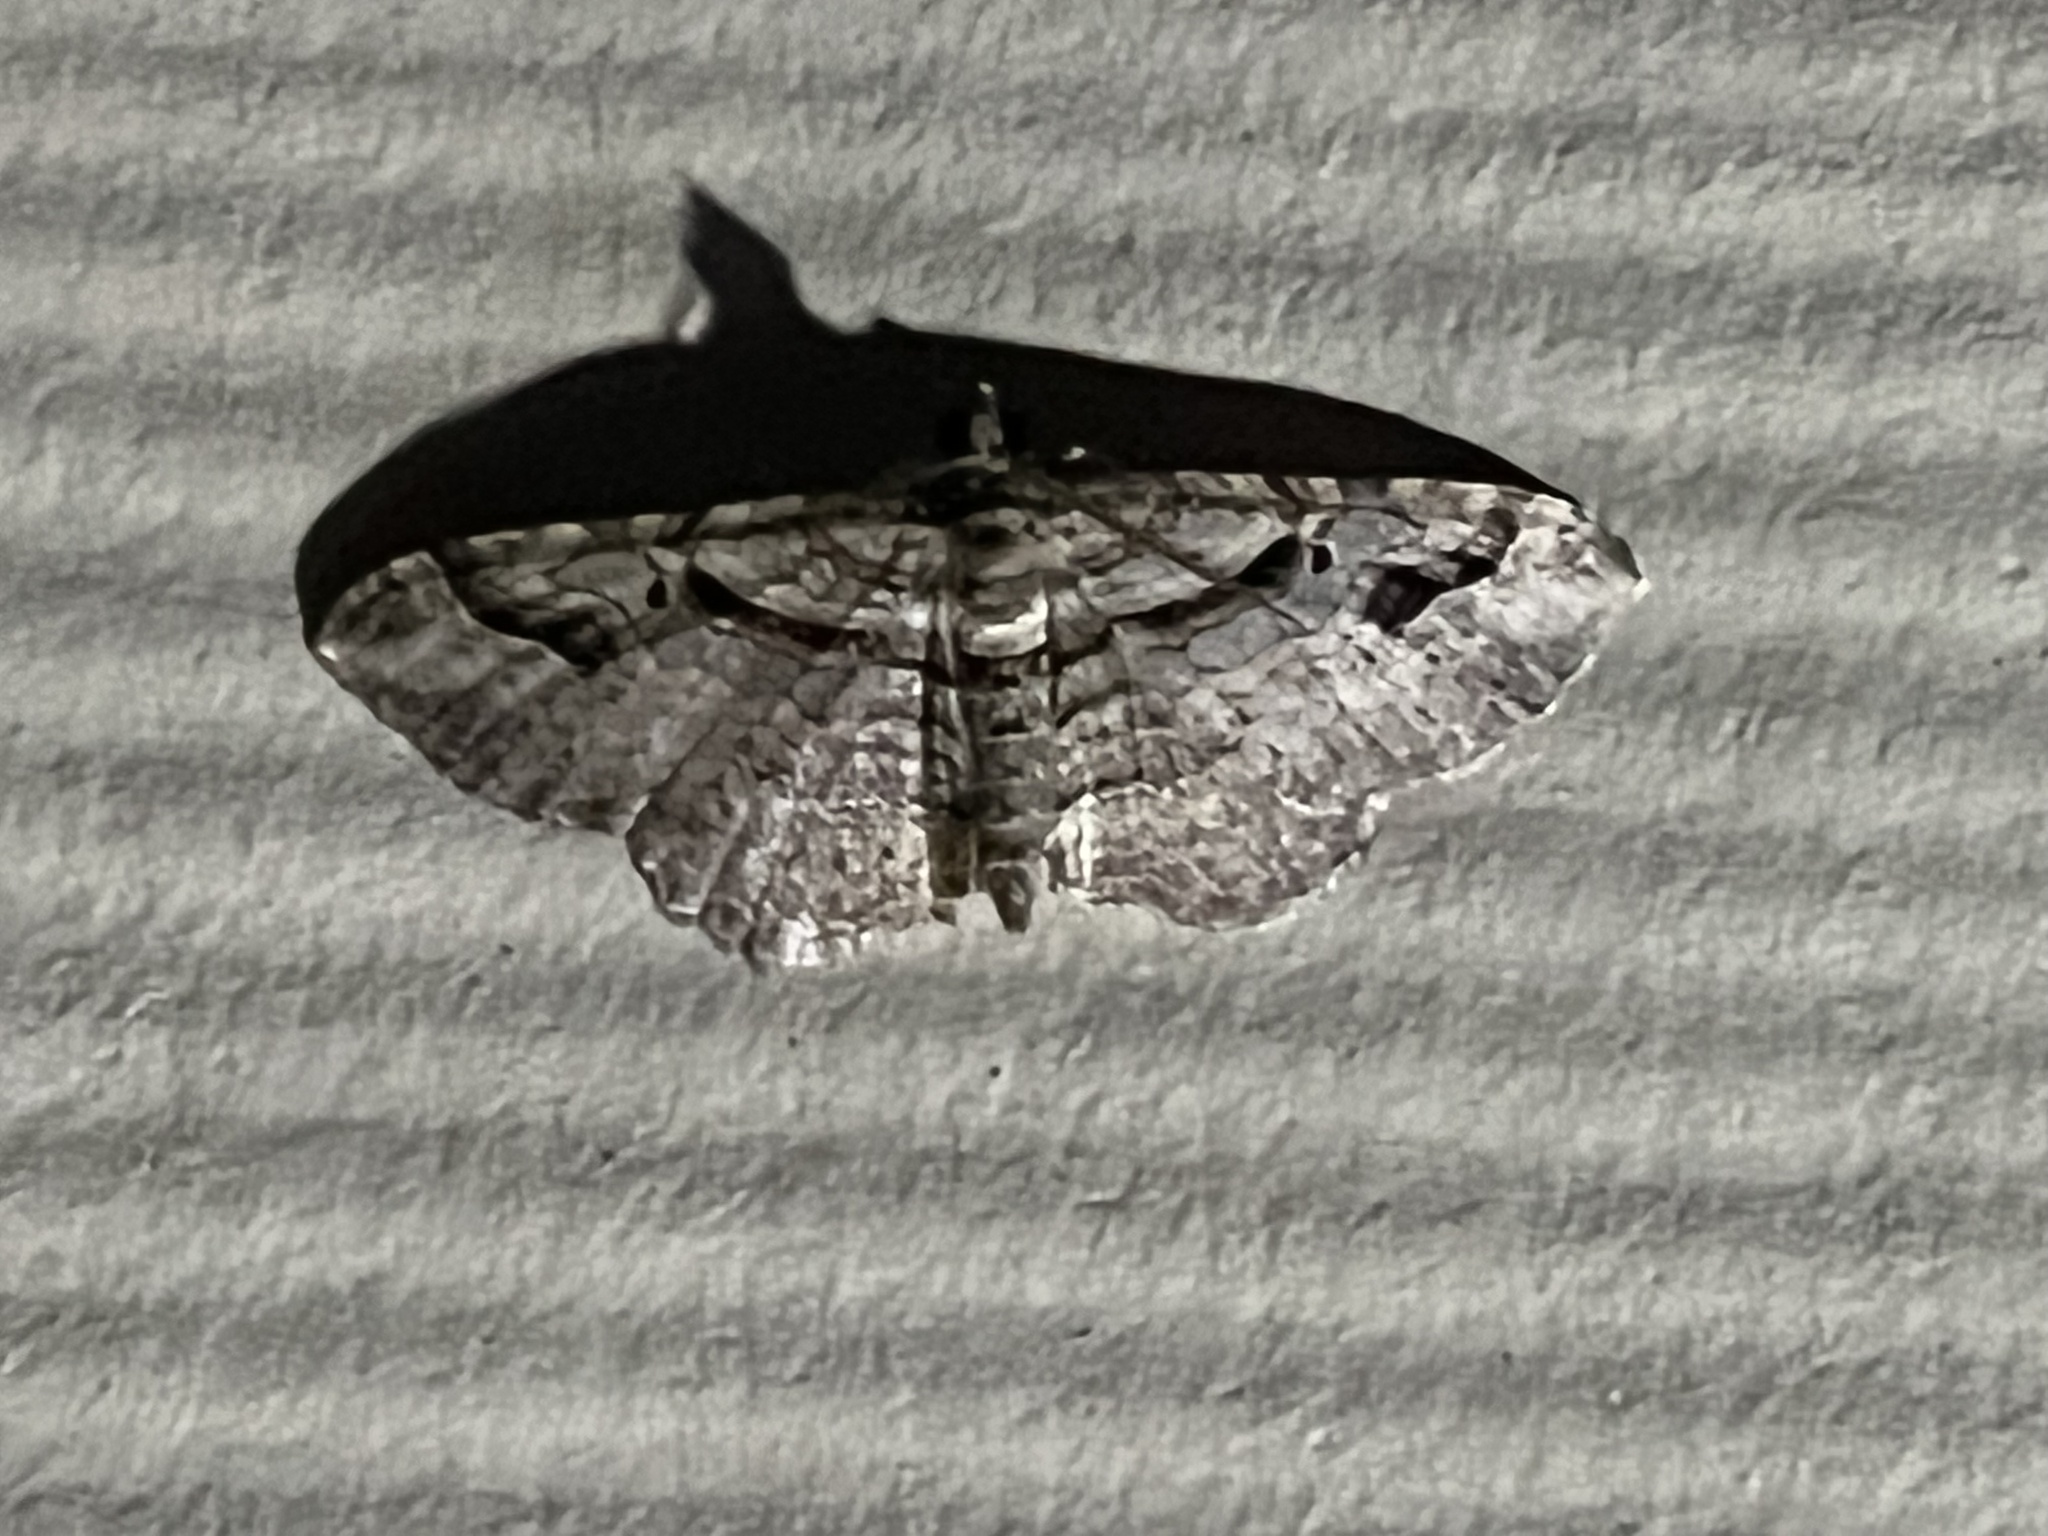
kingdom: Animalia
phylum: Arthropoda
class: Insecta
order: Lepidoptera
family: Geometridae
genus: Costaconvexa
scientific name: Costaconvexa centrostrigaria
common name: Bent-line carpet
